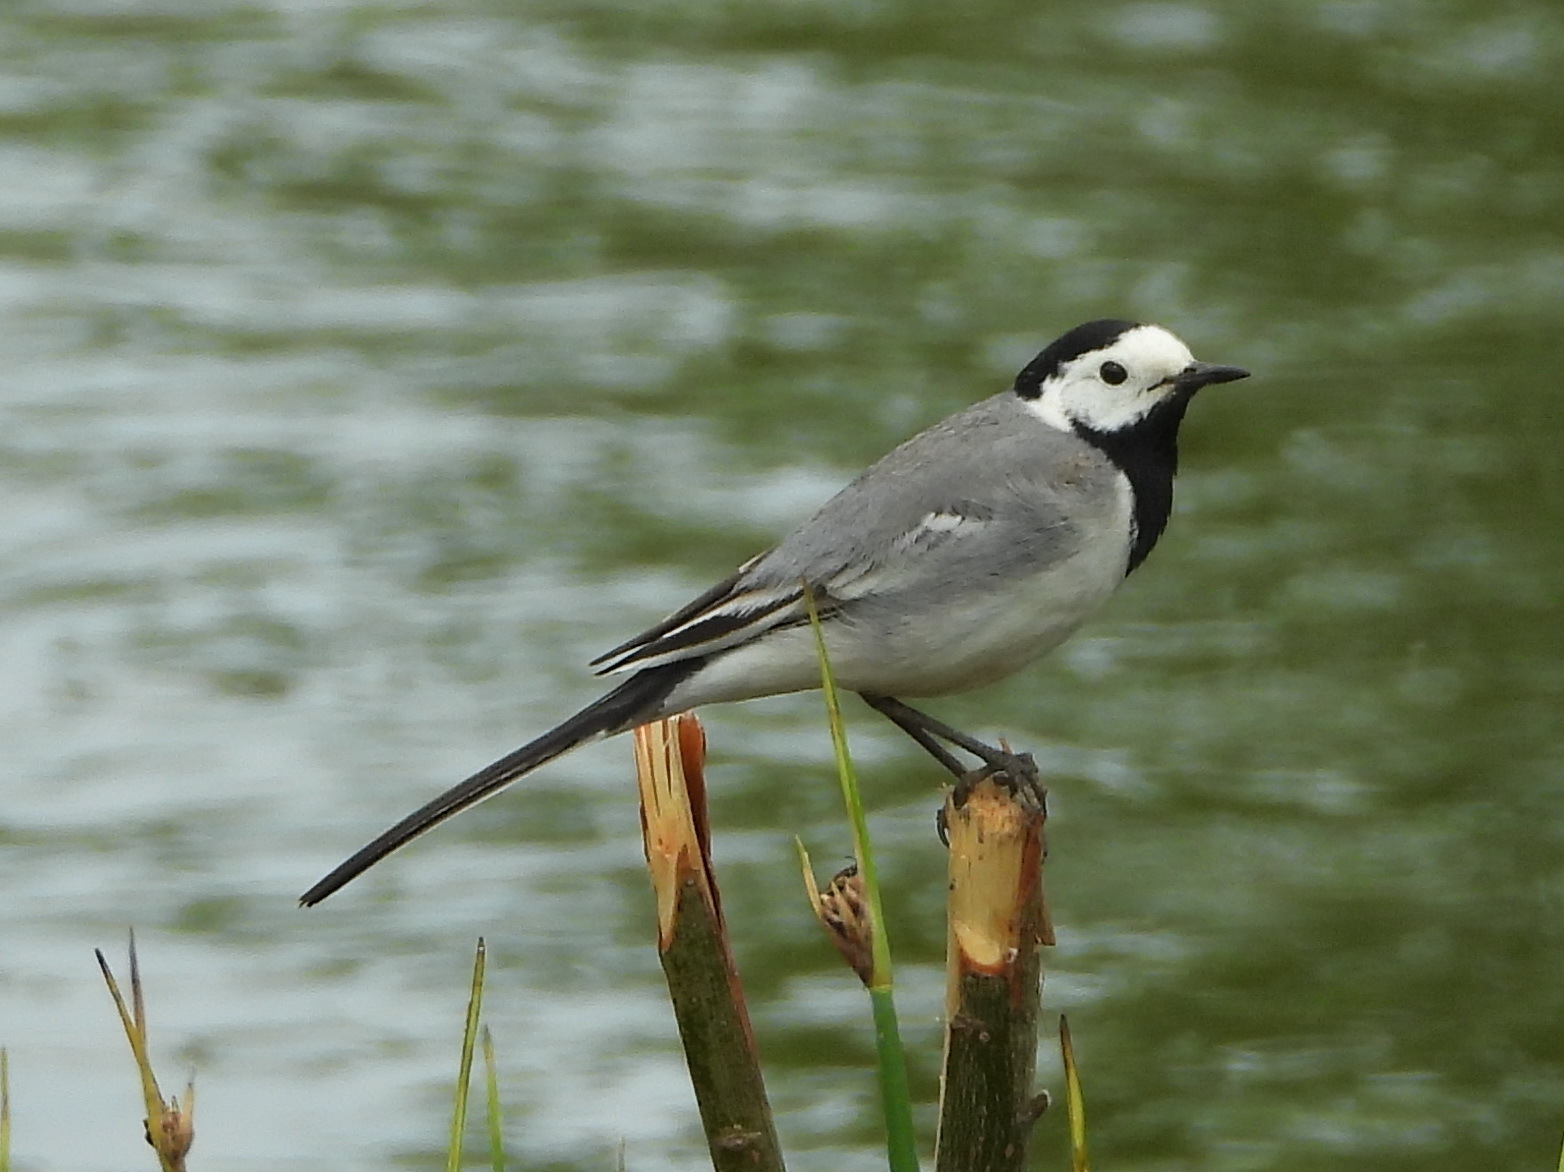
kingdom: Animalia
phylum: Chordata
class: Aves
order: Passeriformes
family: Motacillidae
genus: Motacilla
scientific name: Motacilla alba
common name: White wagtail
